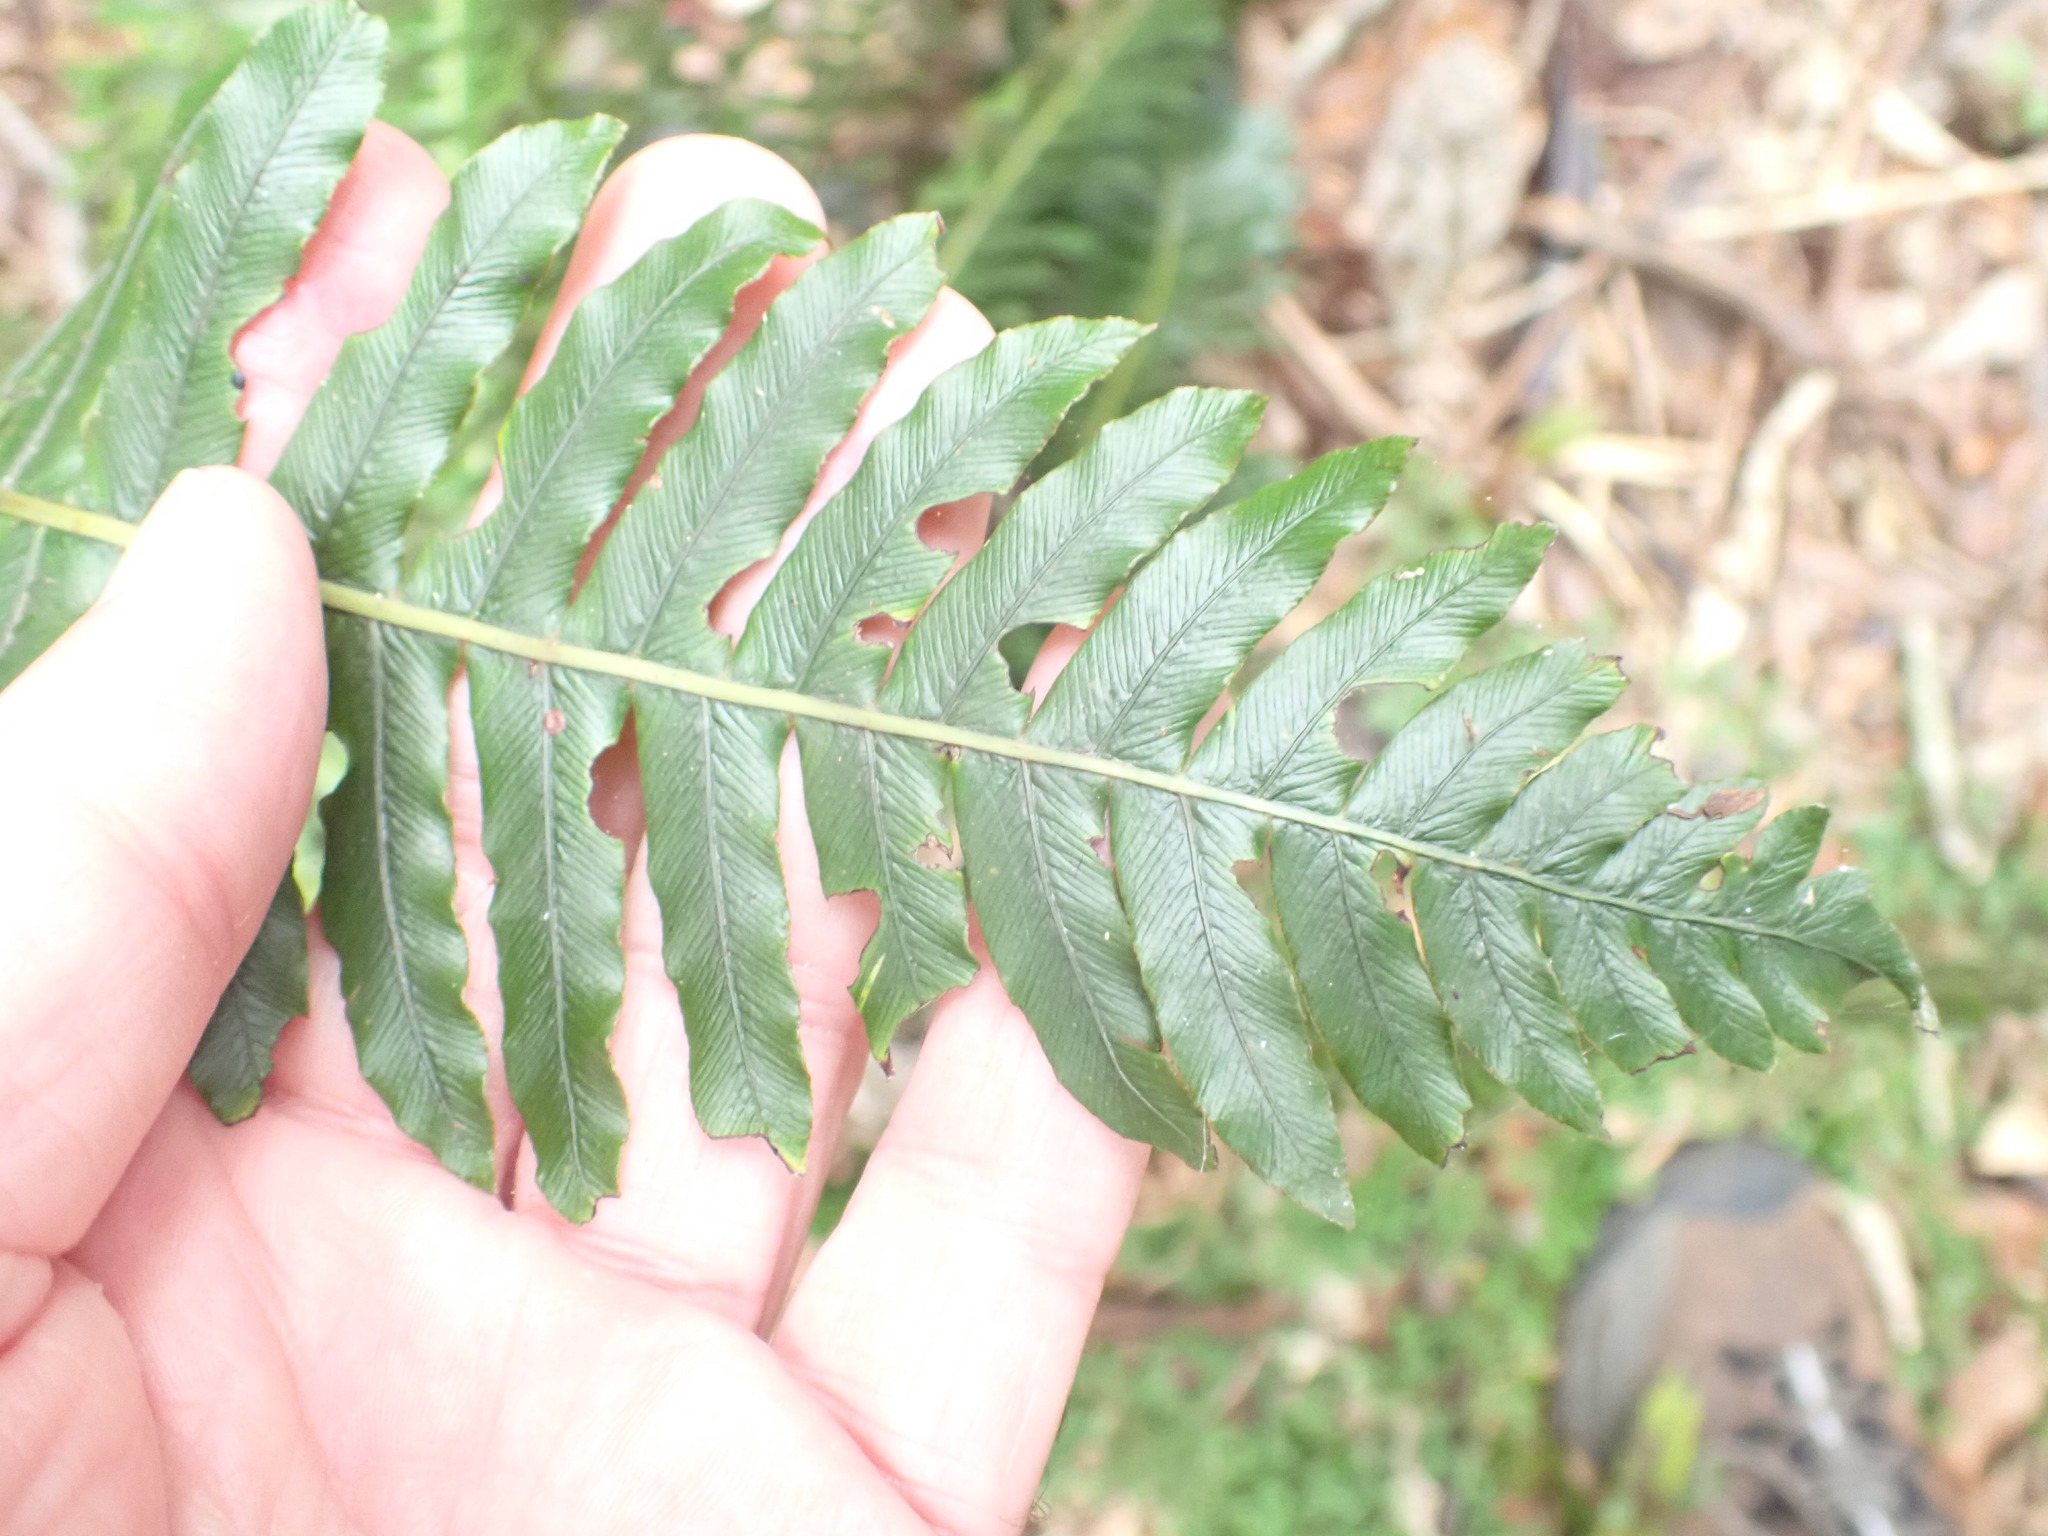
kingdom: Plantae
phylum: Tracheophyta
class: Polypodiopsida
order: Polypodiales
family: Blechnaceae
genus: Lomaria
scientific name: Lomaria discolor
